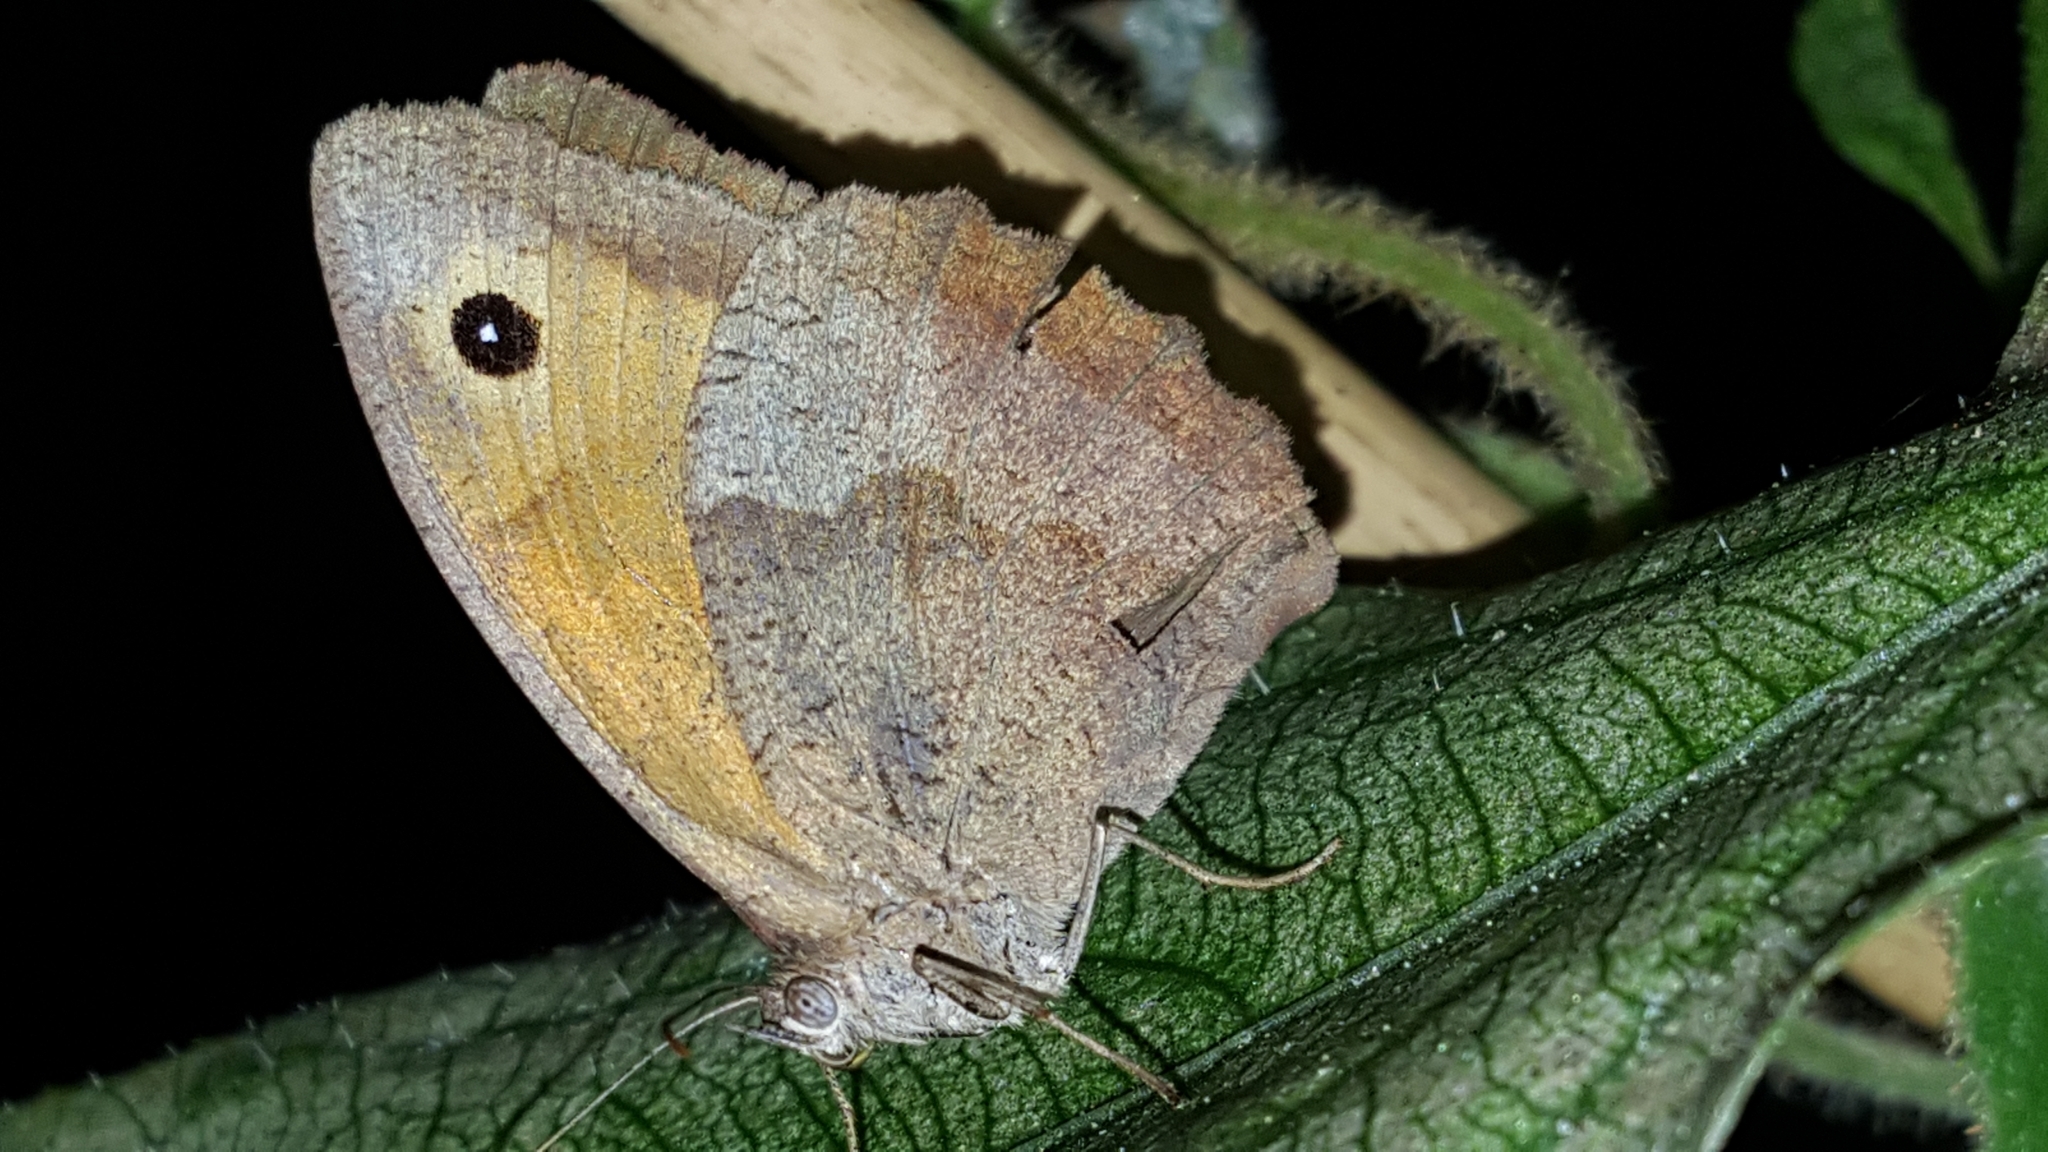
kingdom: Animalia
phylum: Arthropoda
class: Insecta
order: Lepidoptera
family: Nymphalidae
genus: Maniola
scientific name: Maniola jurtina
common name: Meadow brown
